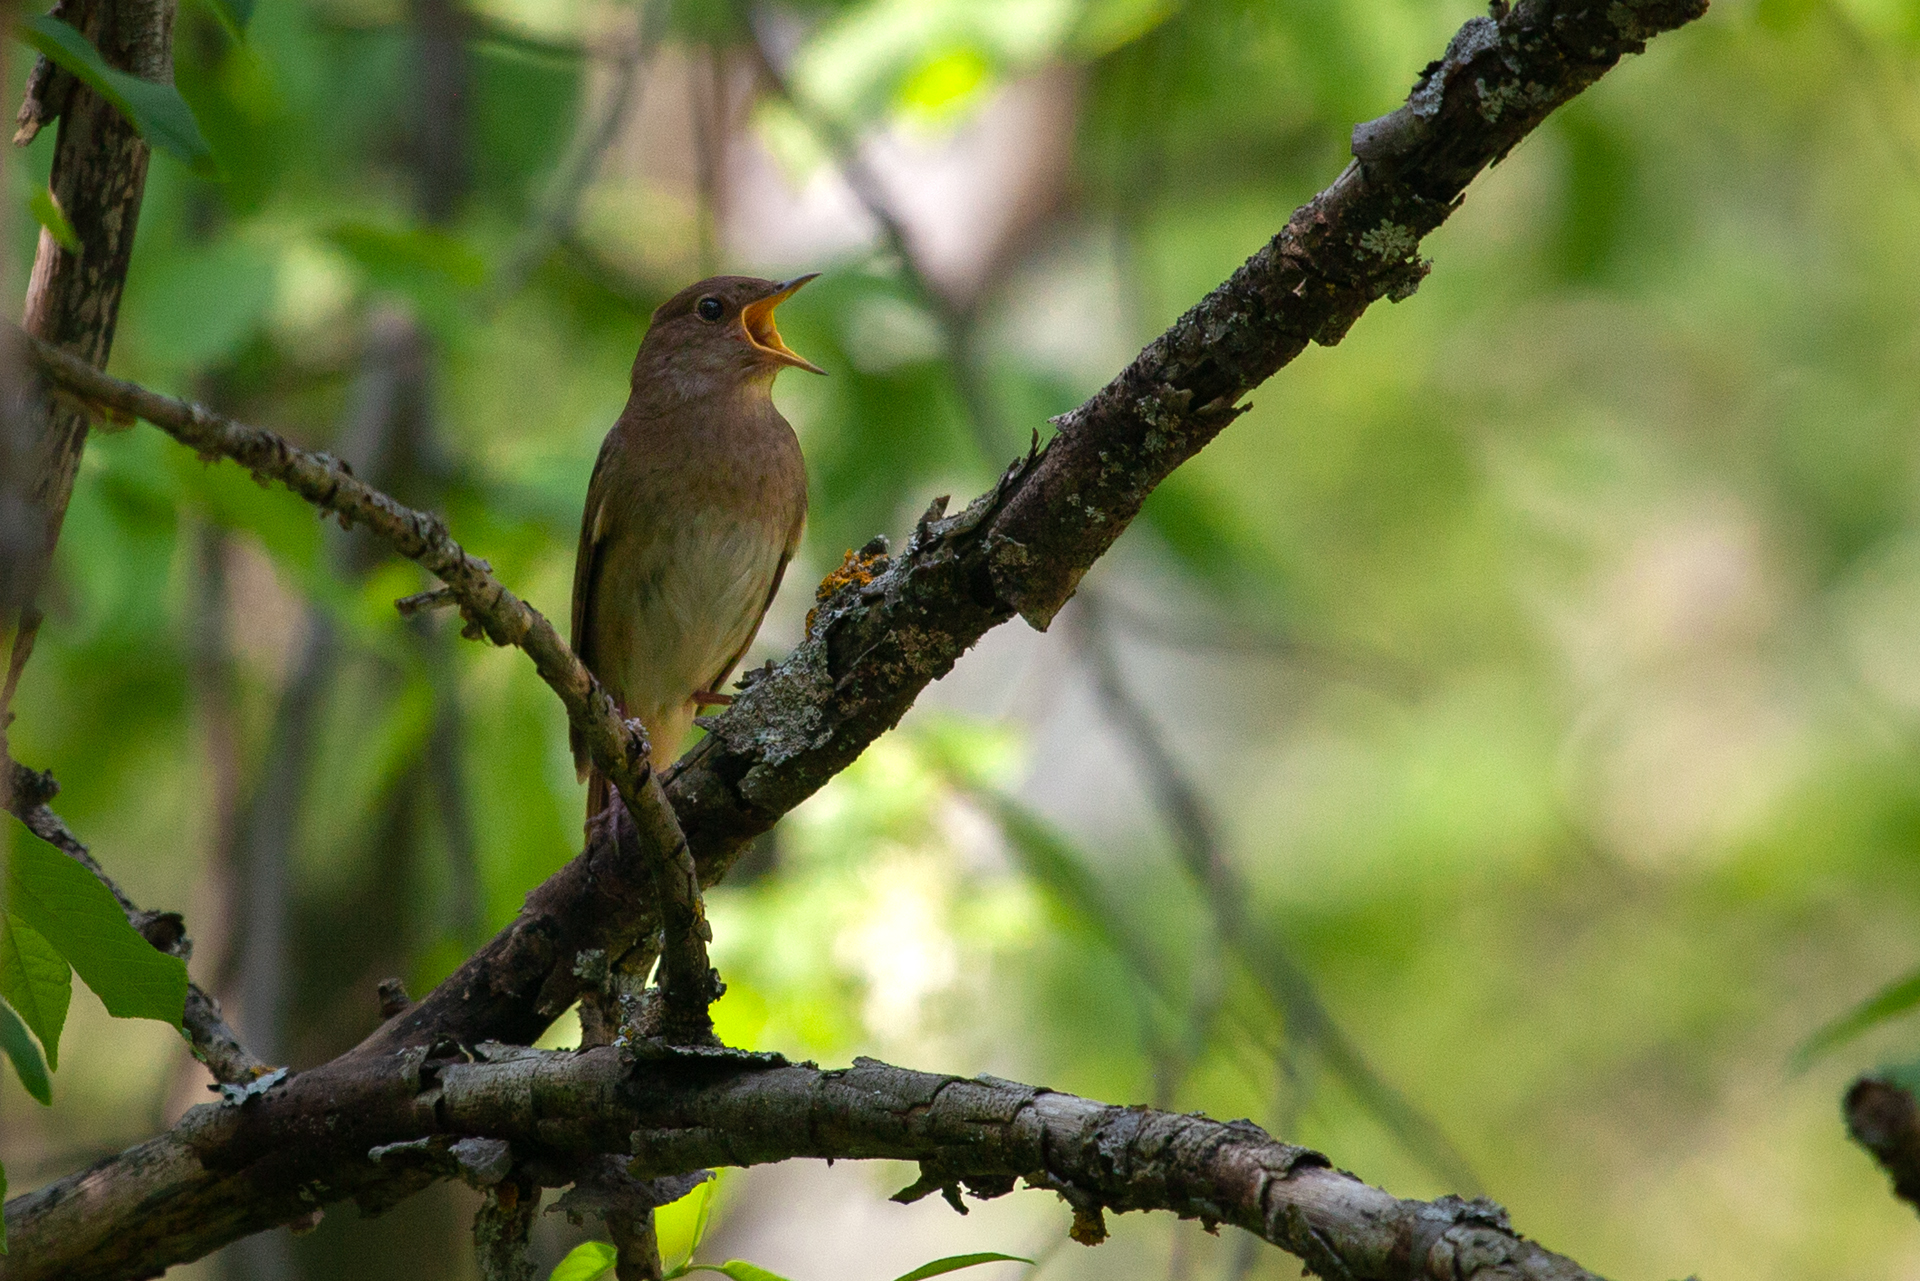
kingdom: Animalia
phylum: Chordata
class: Aves
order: Passeriformes
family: Muscicapidae
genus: Luscinia
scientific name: Luscinia luscinia
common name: Thrush nightingale
